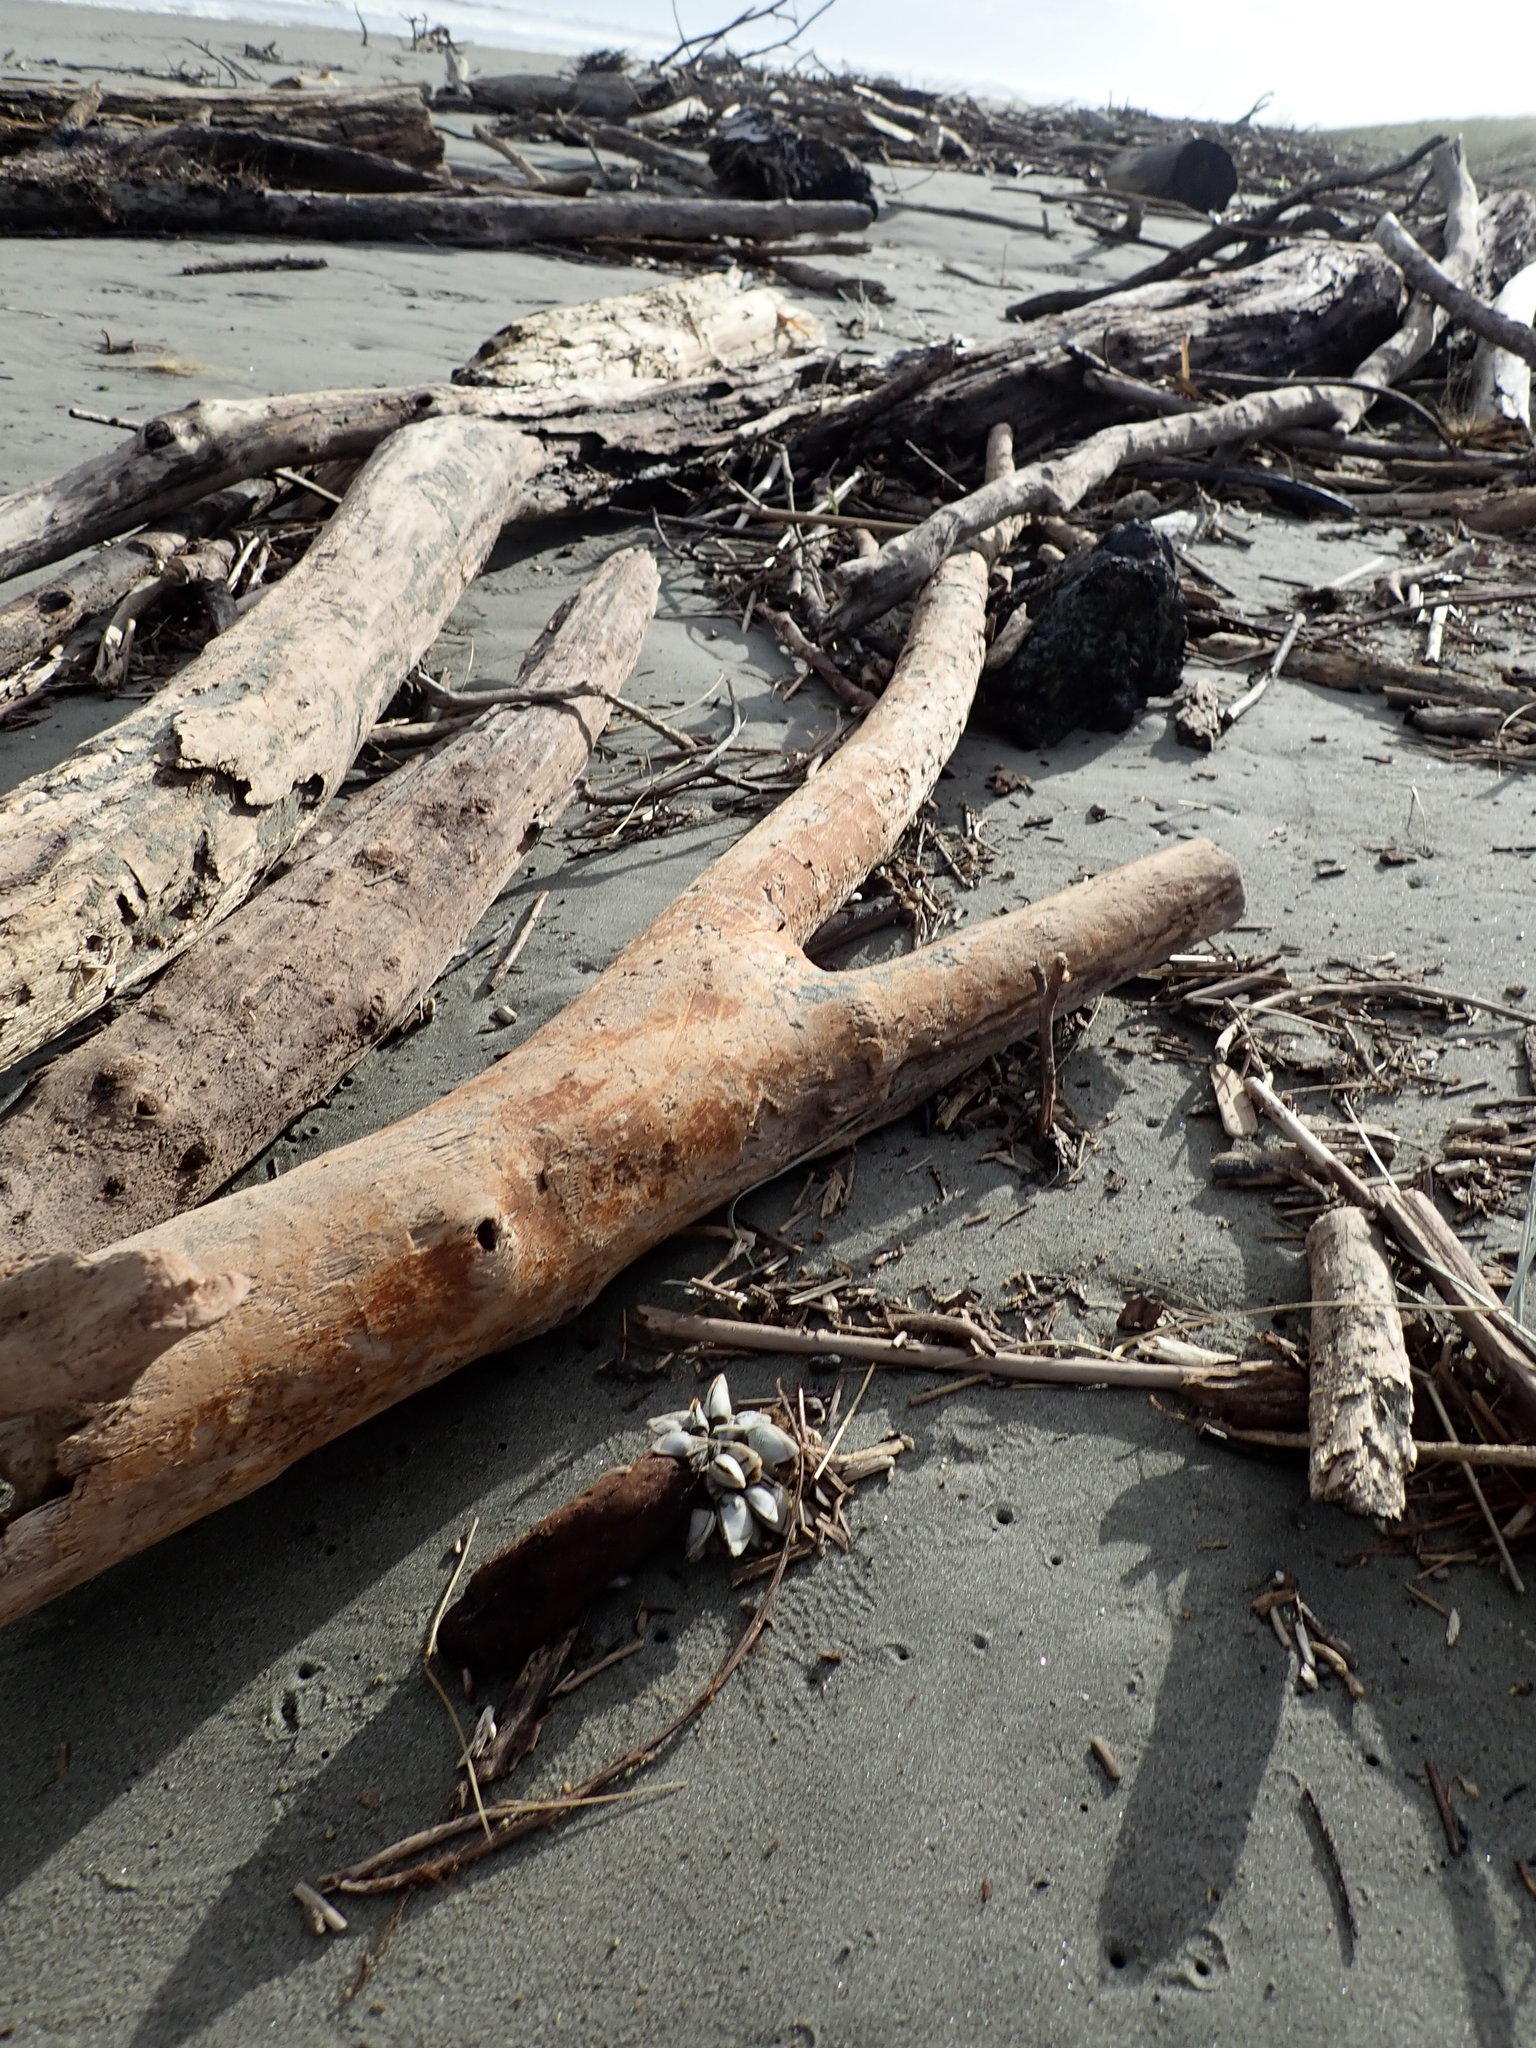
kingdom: Animalia
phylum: Arthropoda
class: Maxillopoda
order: Pedunculata
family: Lepadidae
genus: Lepas
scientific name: Lepas pectinata
